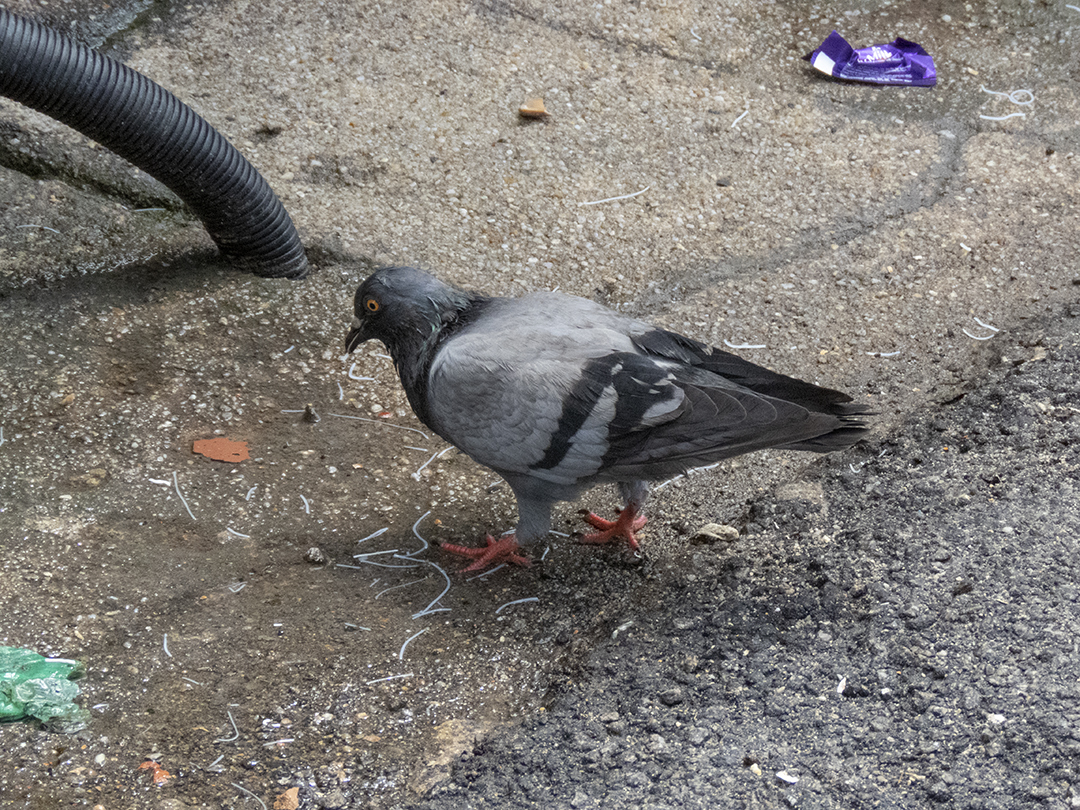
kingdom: Animalia
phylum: Chordata
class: Aves
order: Columbiformes
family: Columbidae
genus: Columba
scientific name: Columba livia
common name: Rock pigeon
